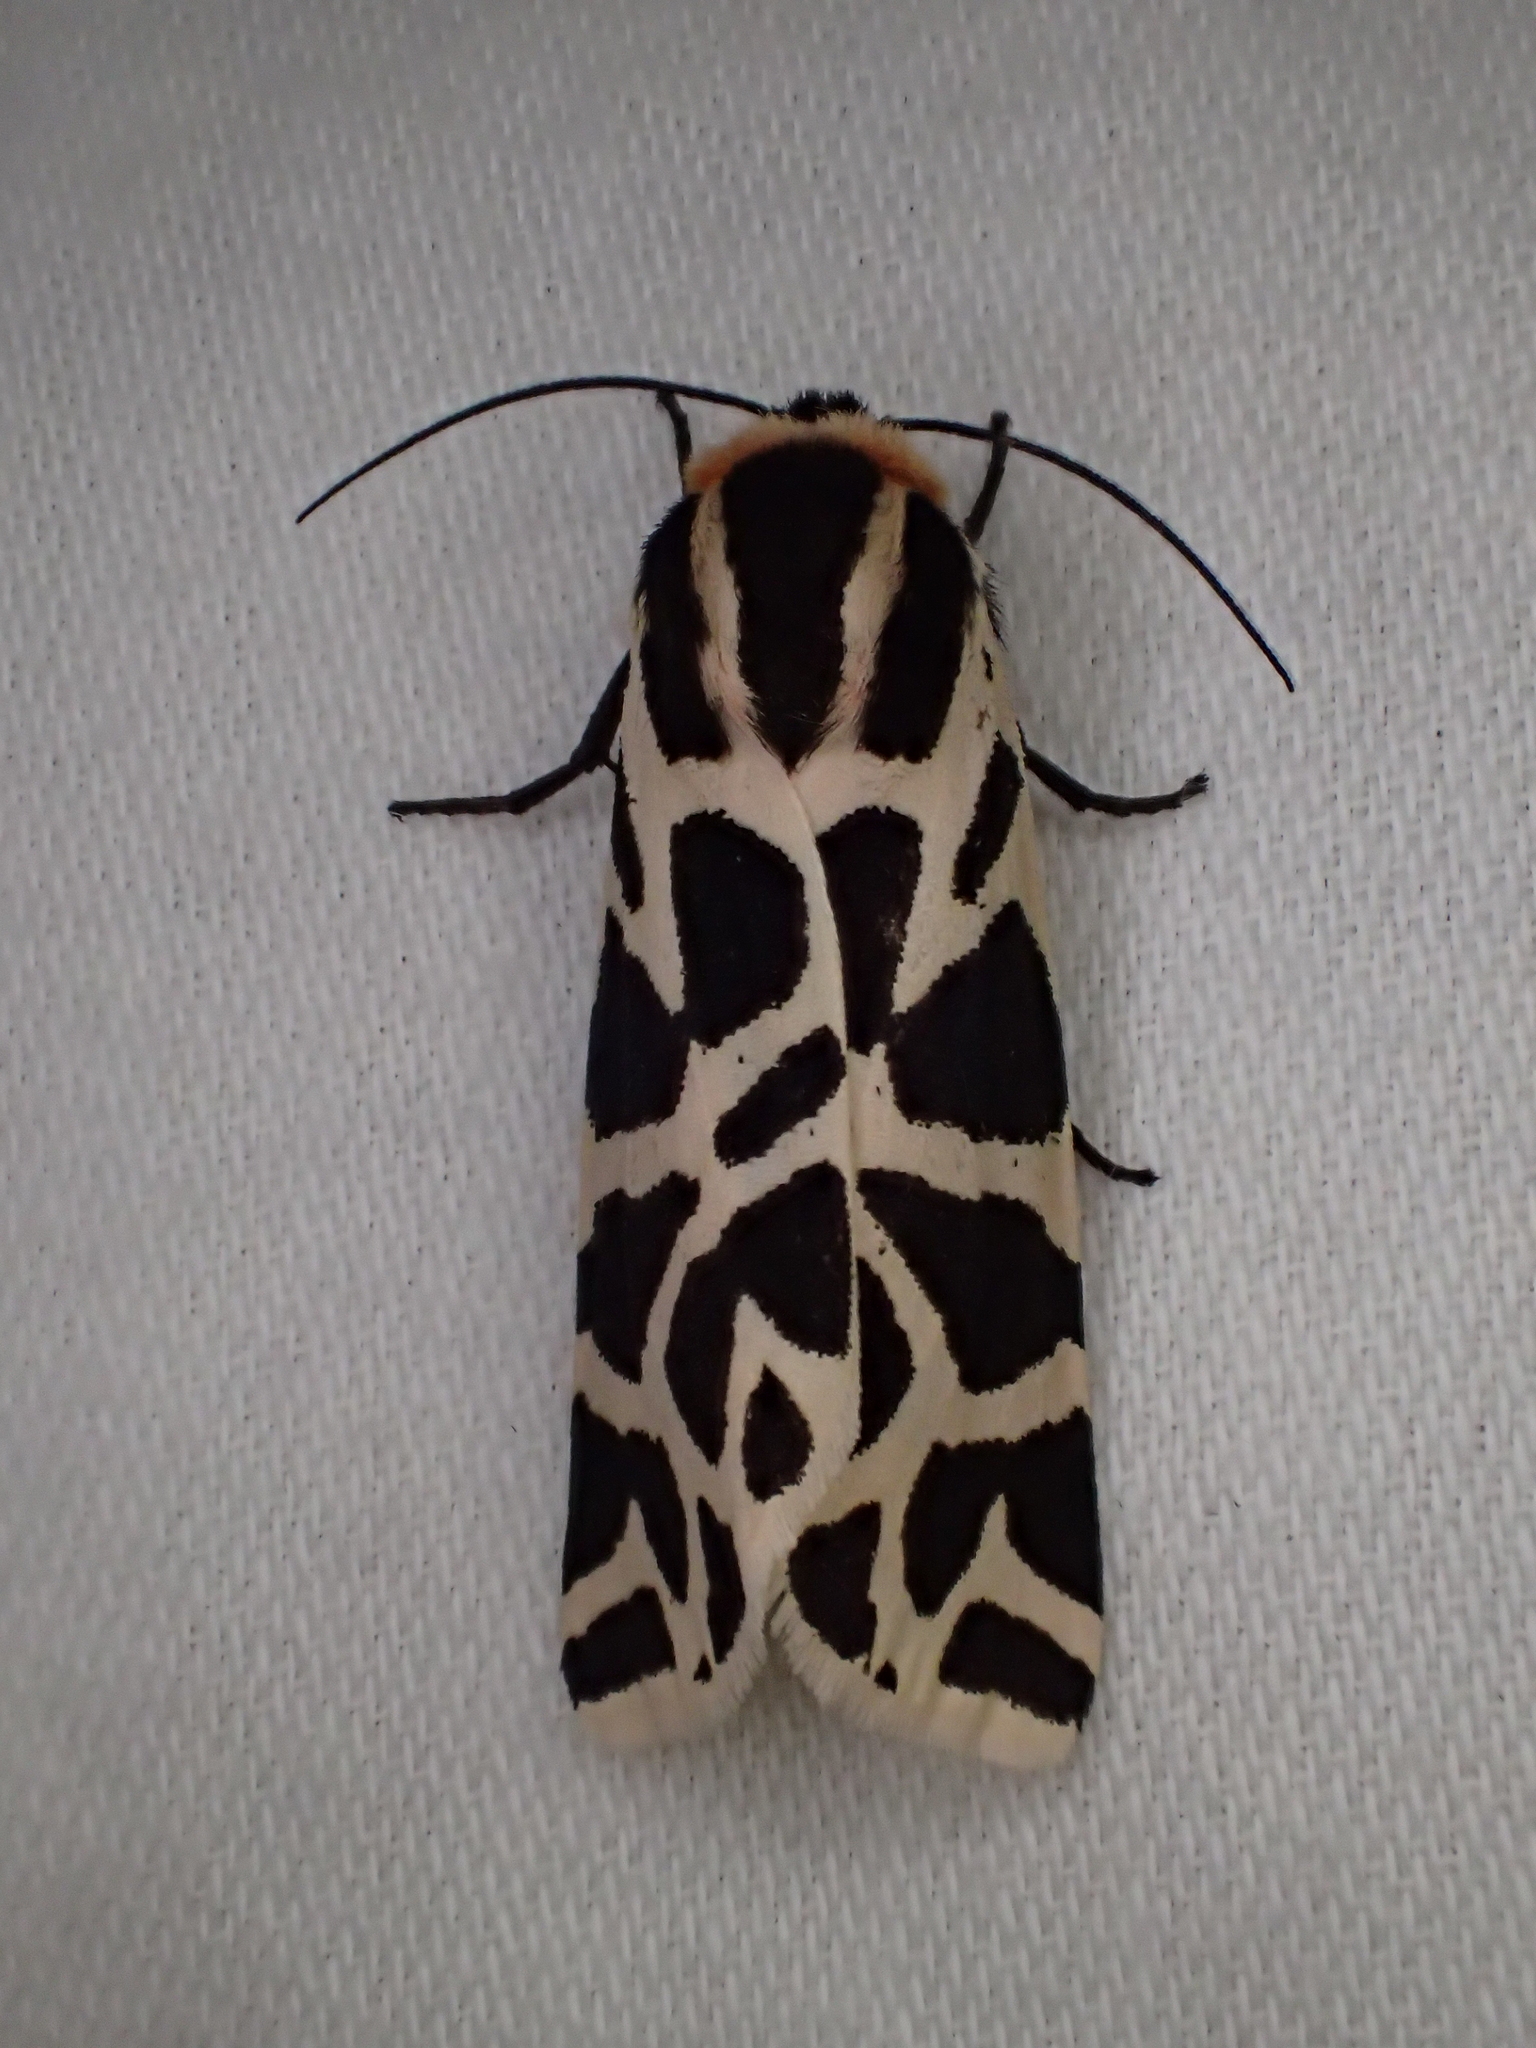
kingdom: Animalia
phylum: Arthropoda
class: Insecta
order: Lepidoptera
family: Erebidae
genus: Cymbalophora
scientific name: Cymbalophora pudica
